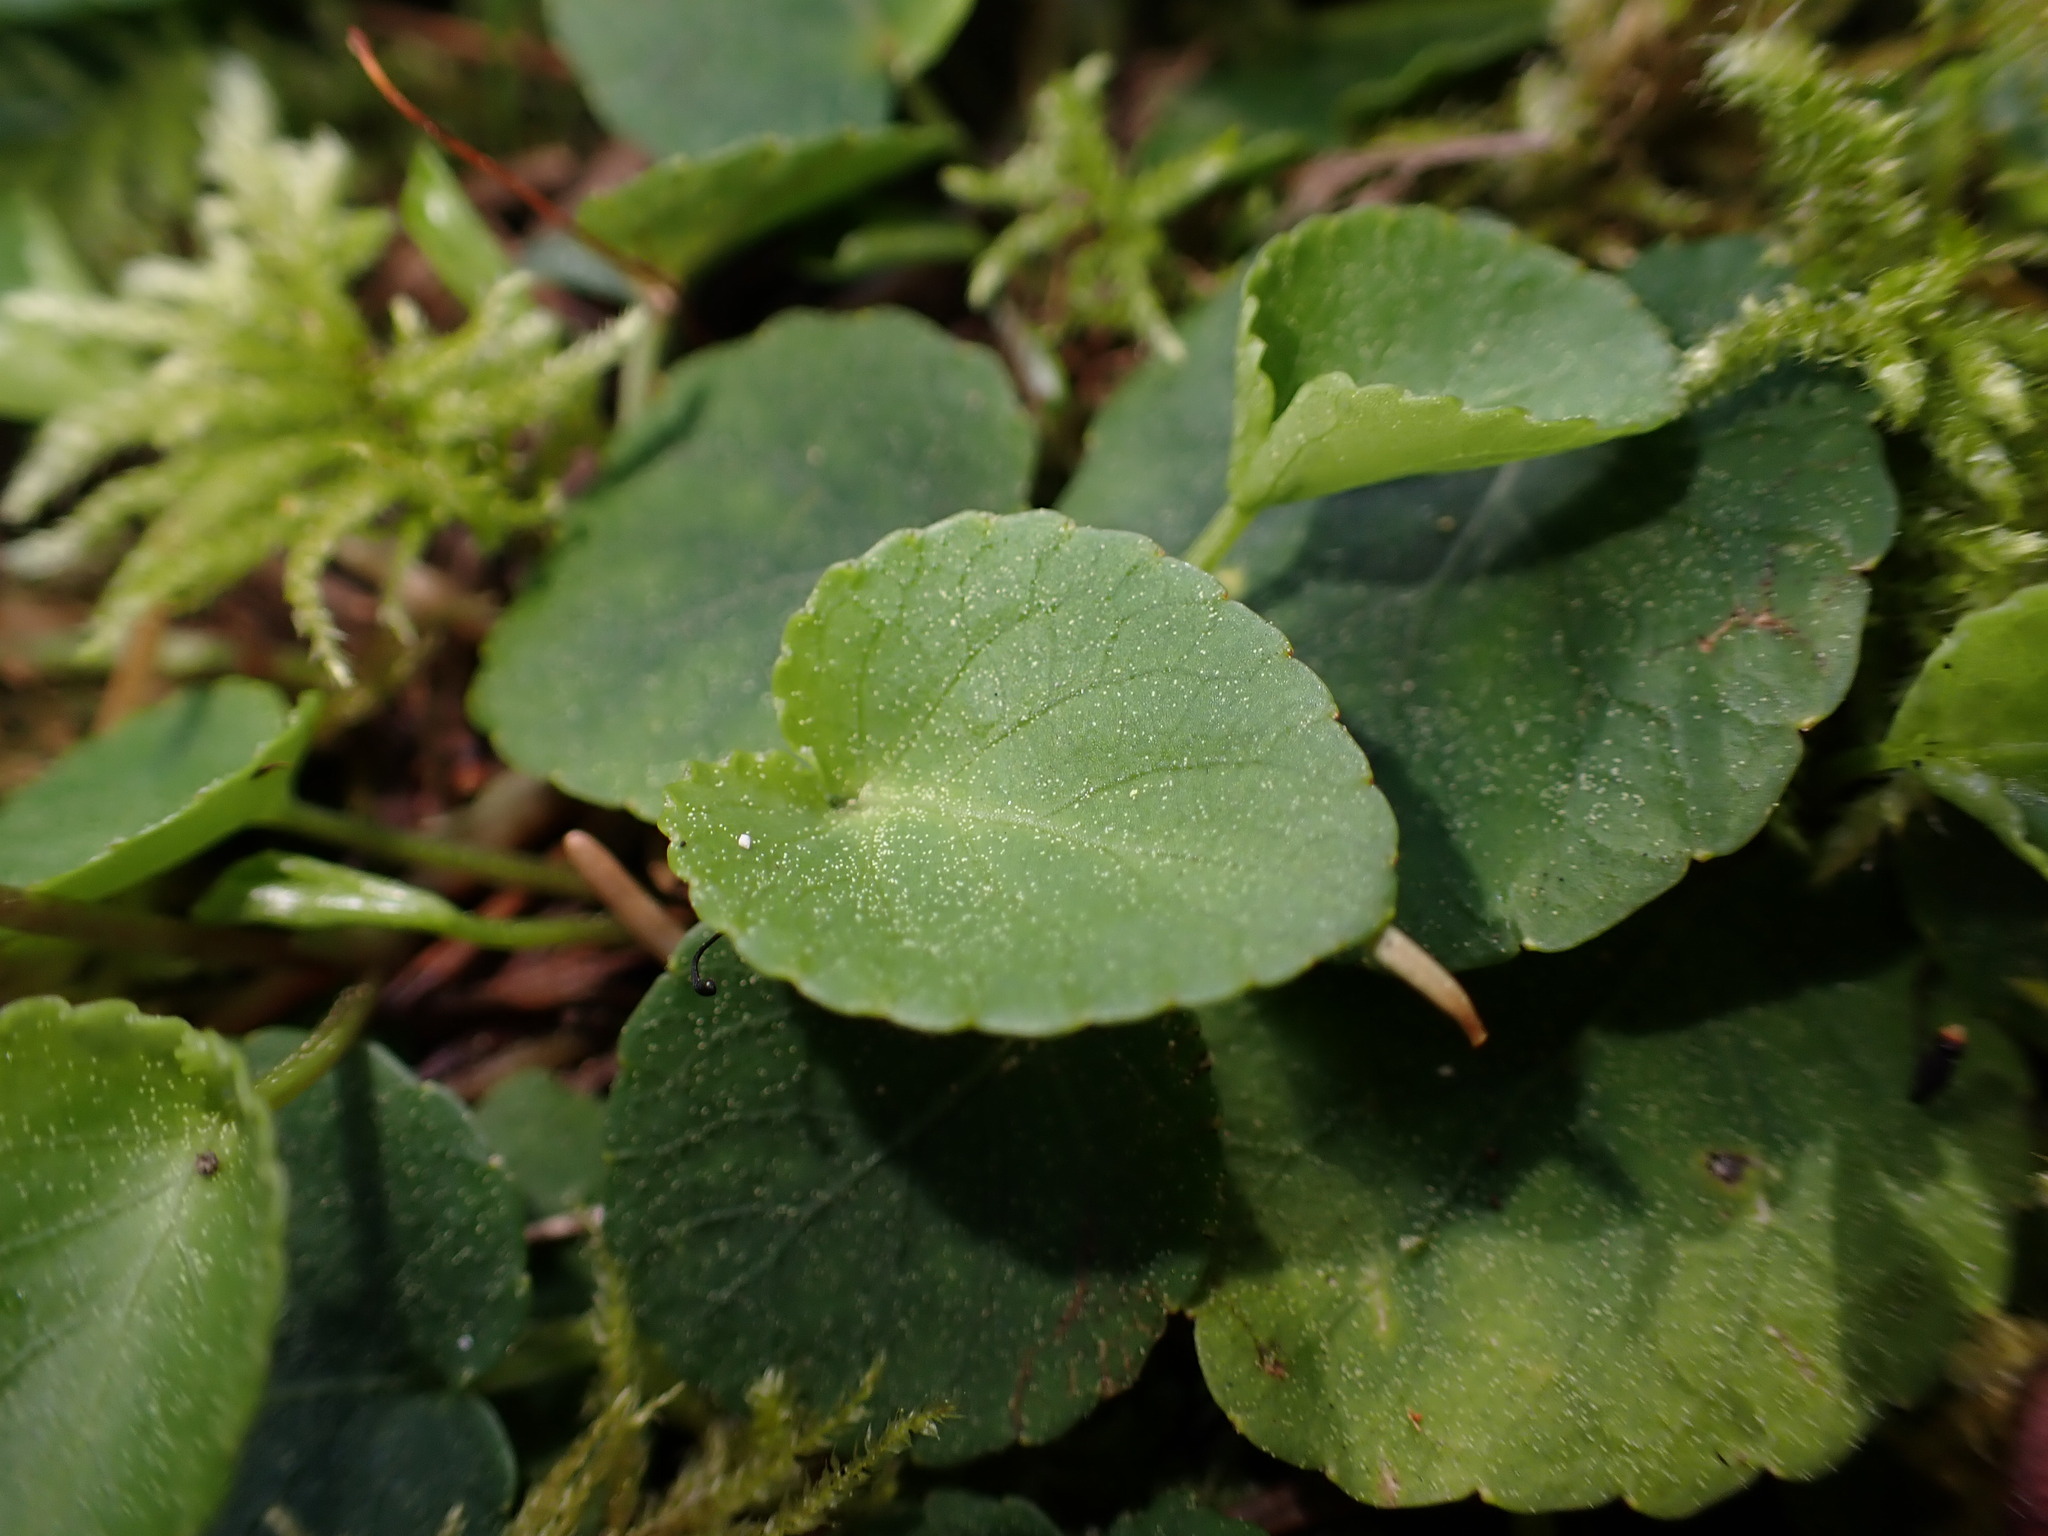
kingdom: Plantae
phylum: Tracheophyta
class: Magnoliopsida
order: Malpighiales
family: Violaceae
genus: Viola
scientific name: Viola sempervirens
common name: Evergreen violet
